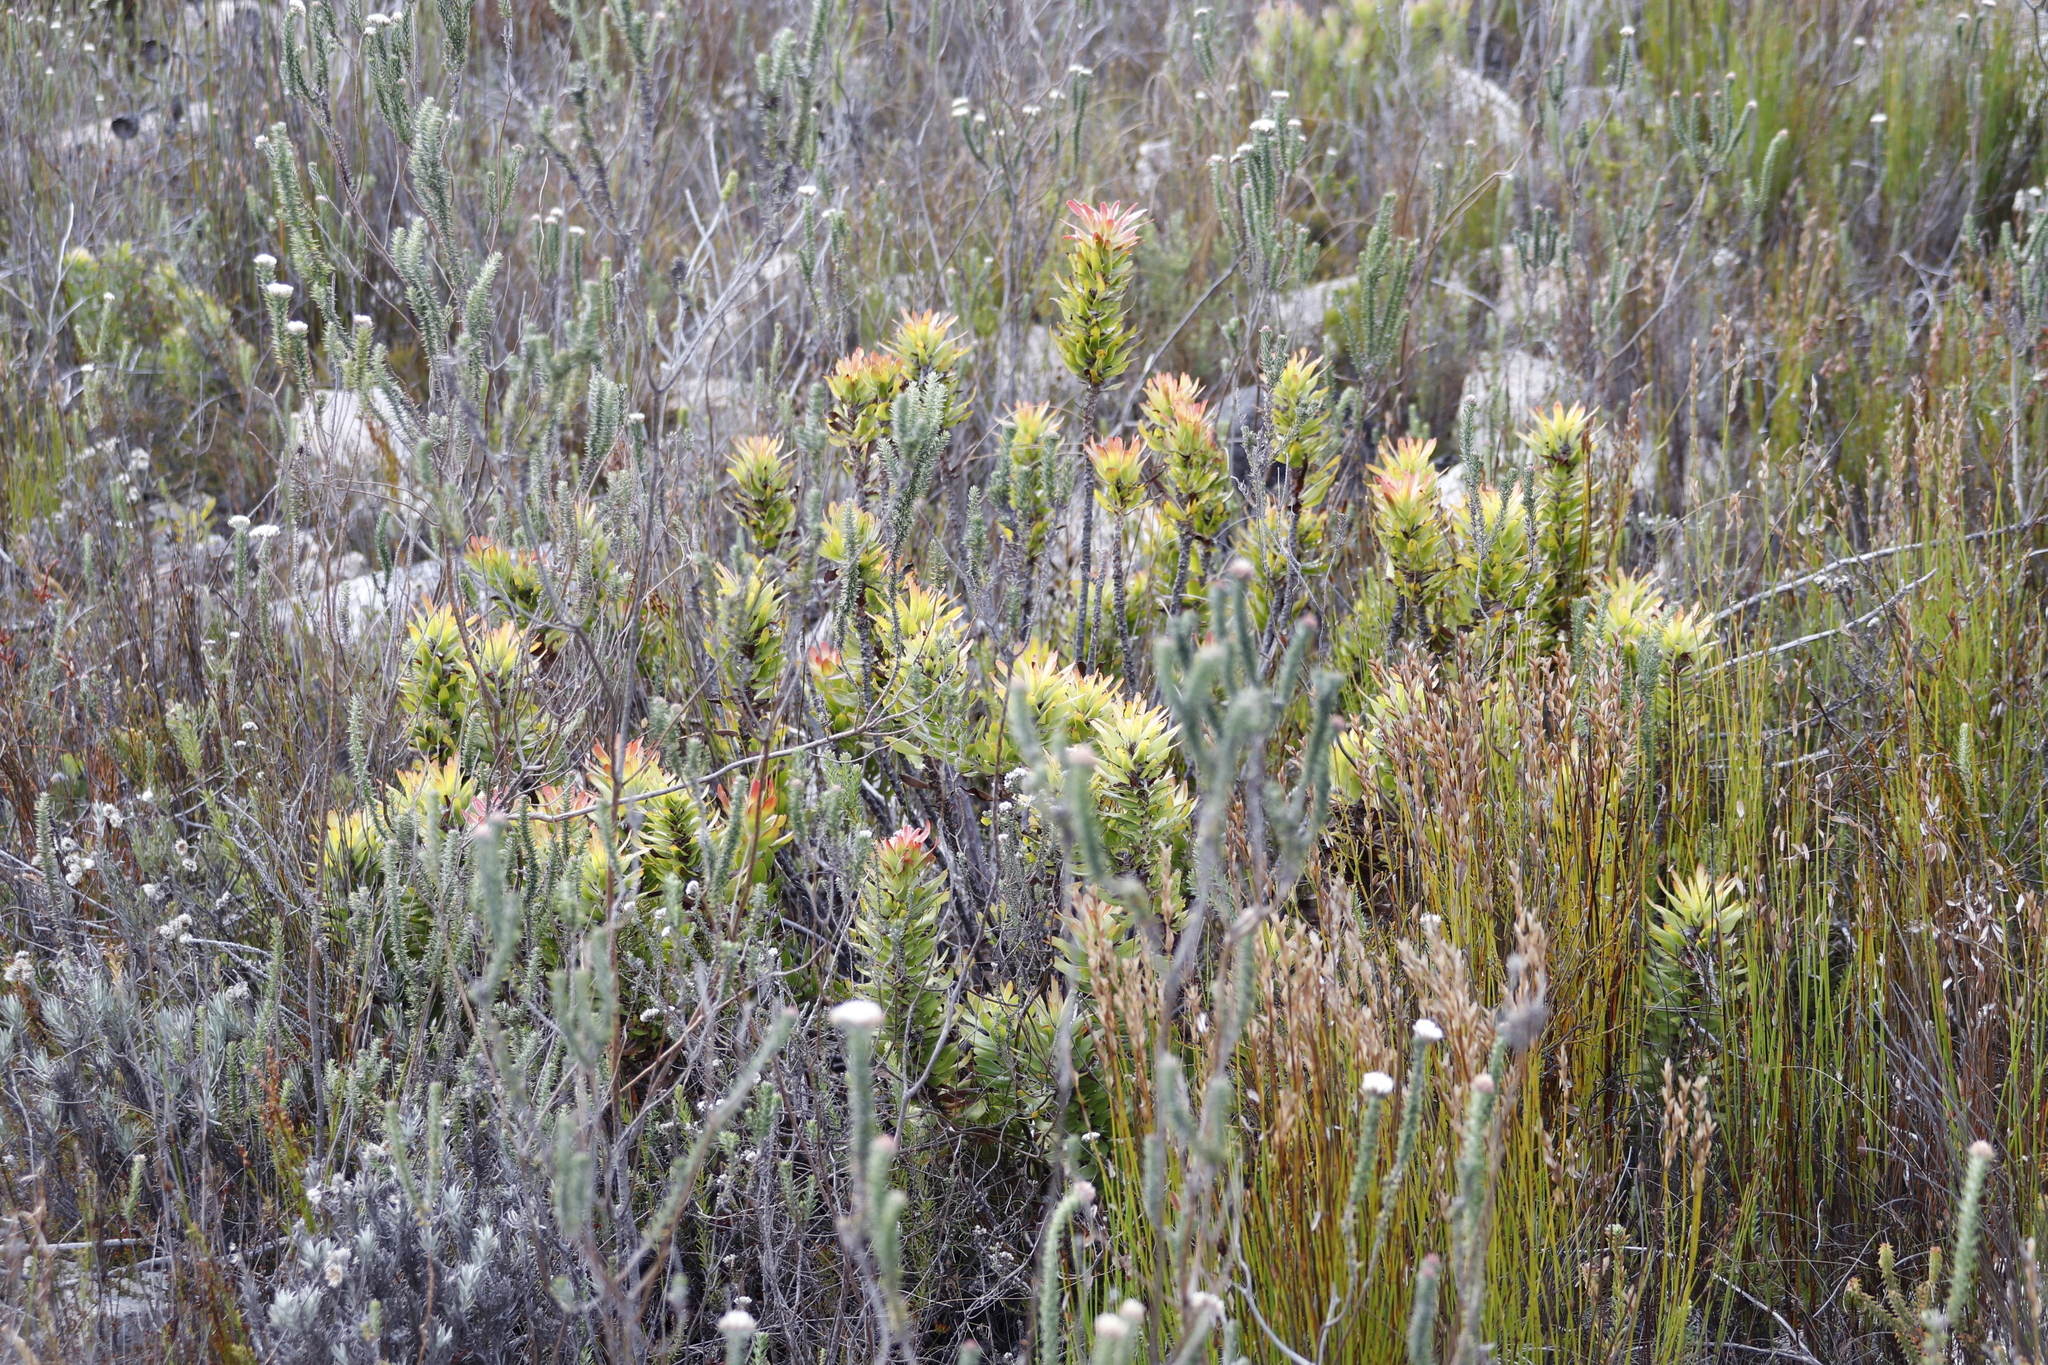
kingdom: Plantae
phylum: Tracheophyta
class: Magnoliopsida
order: Proteales
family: Proteaceae
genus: Mimetes
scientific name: Mimetes cucullatus
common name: Common pagoda
